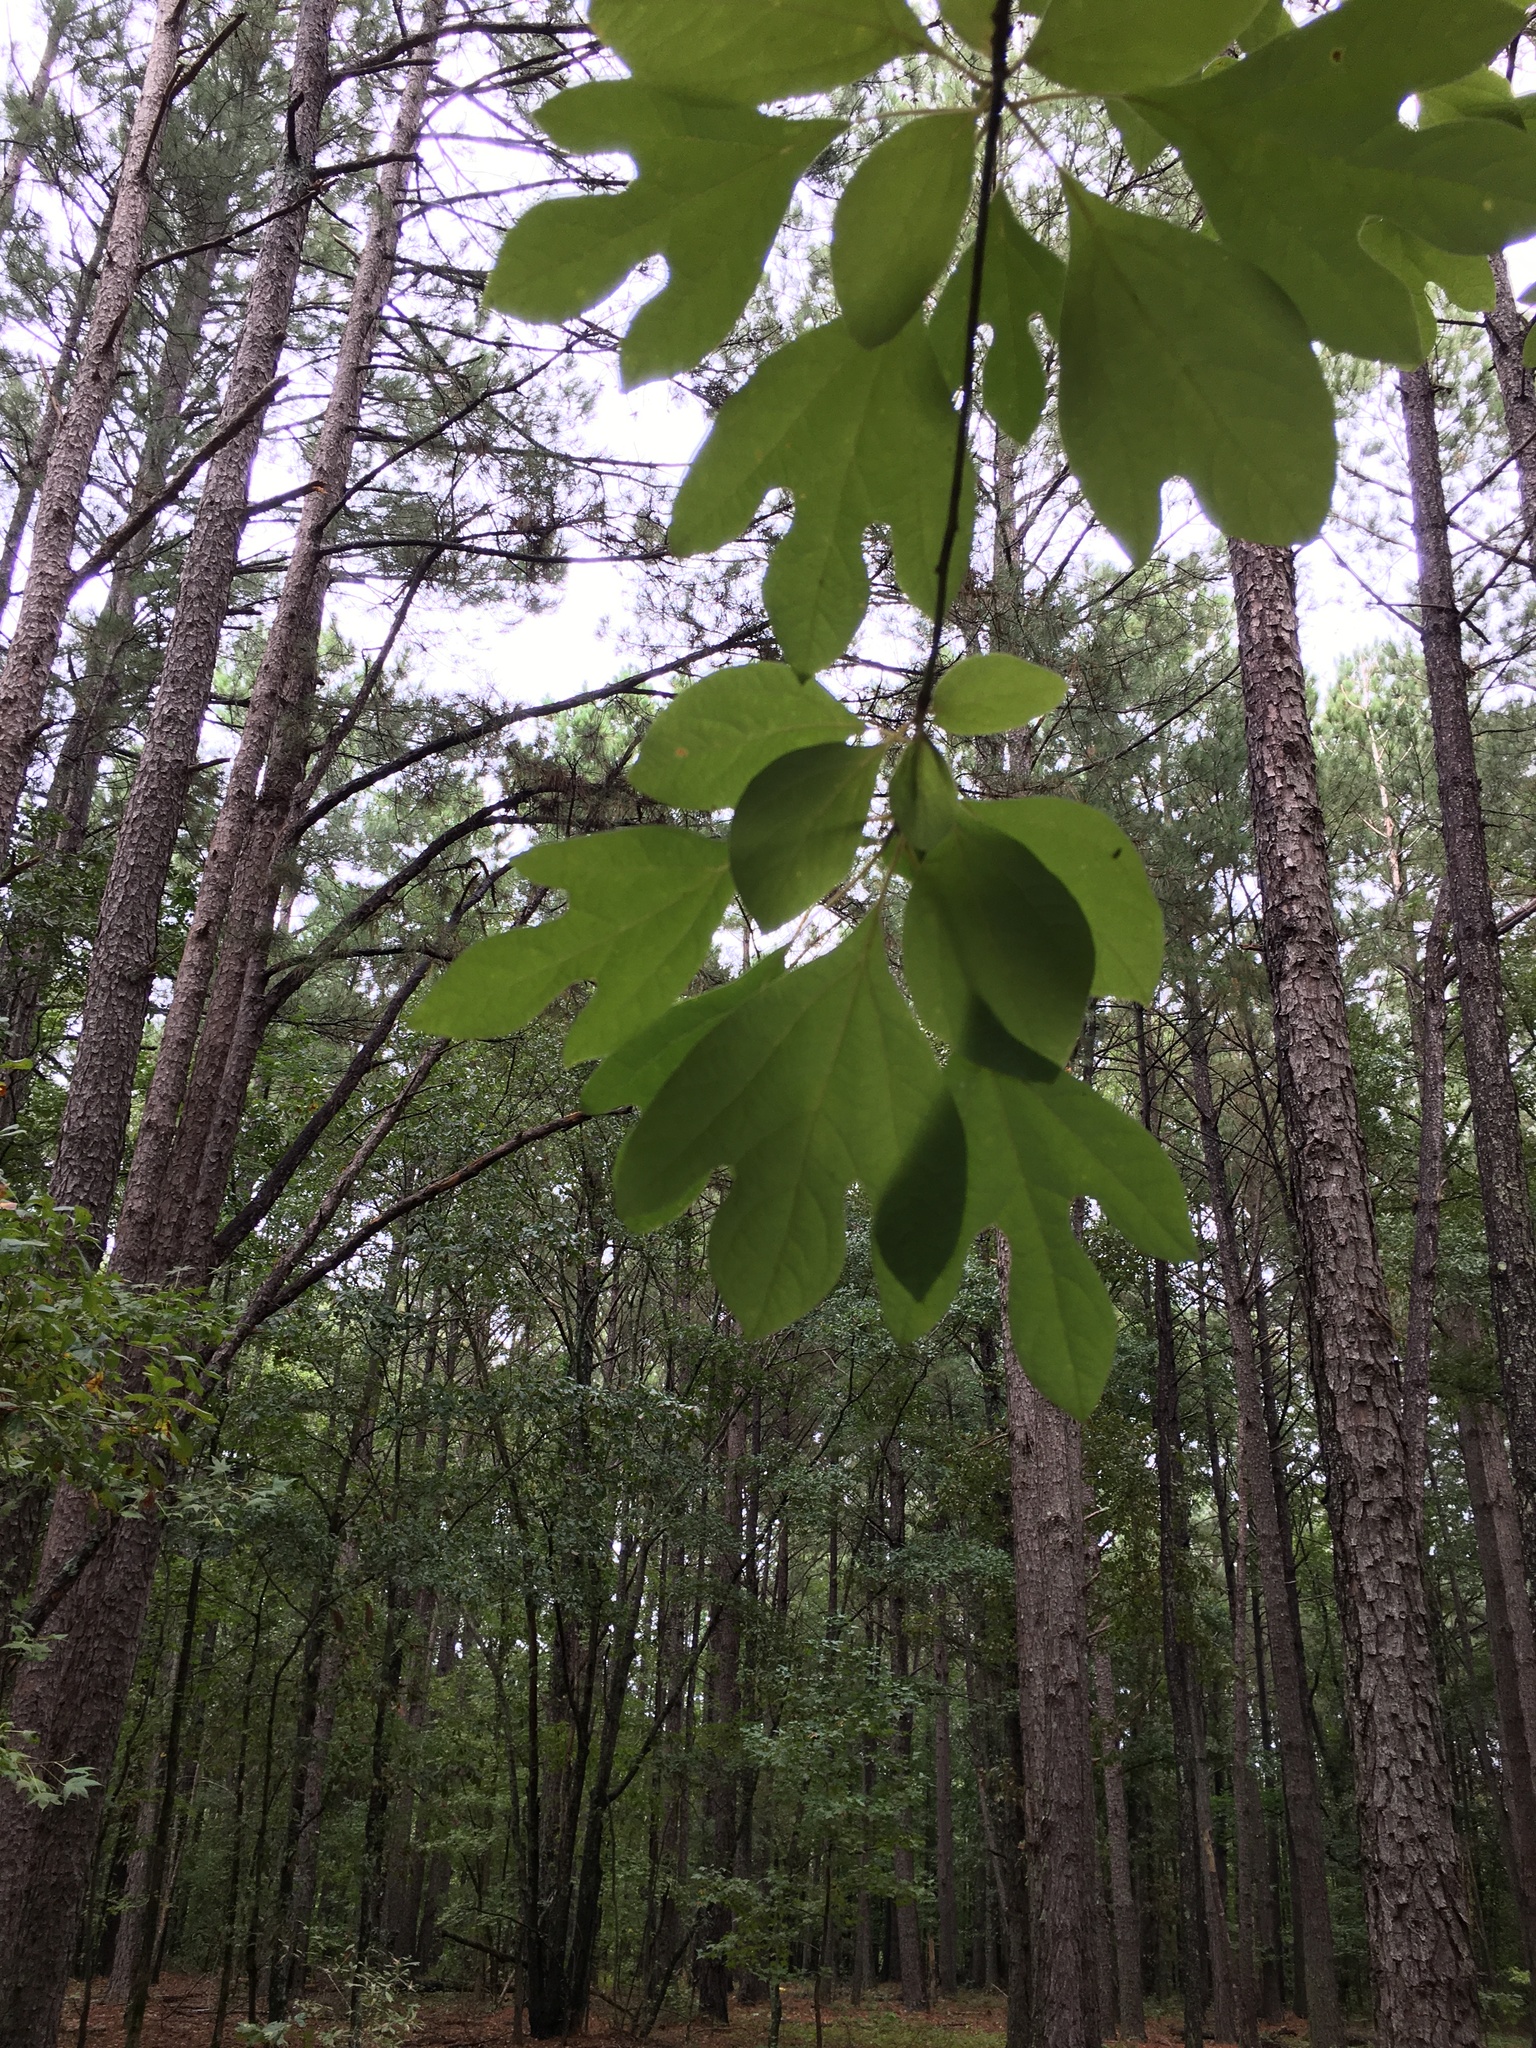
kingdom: Plantae
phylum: Tracheophyta
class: Magnoliopsida
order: Laurales
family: Lauraceae
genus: Sassafras
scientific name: Sassafras albidum
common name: Sassafras
